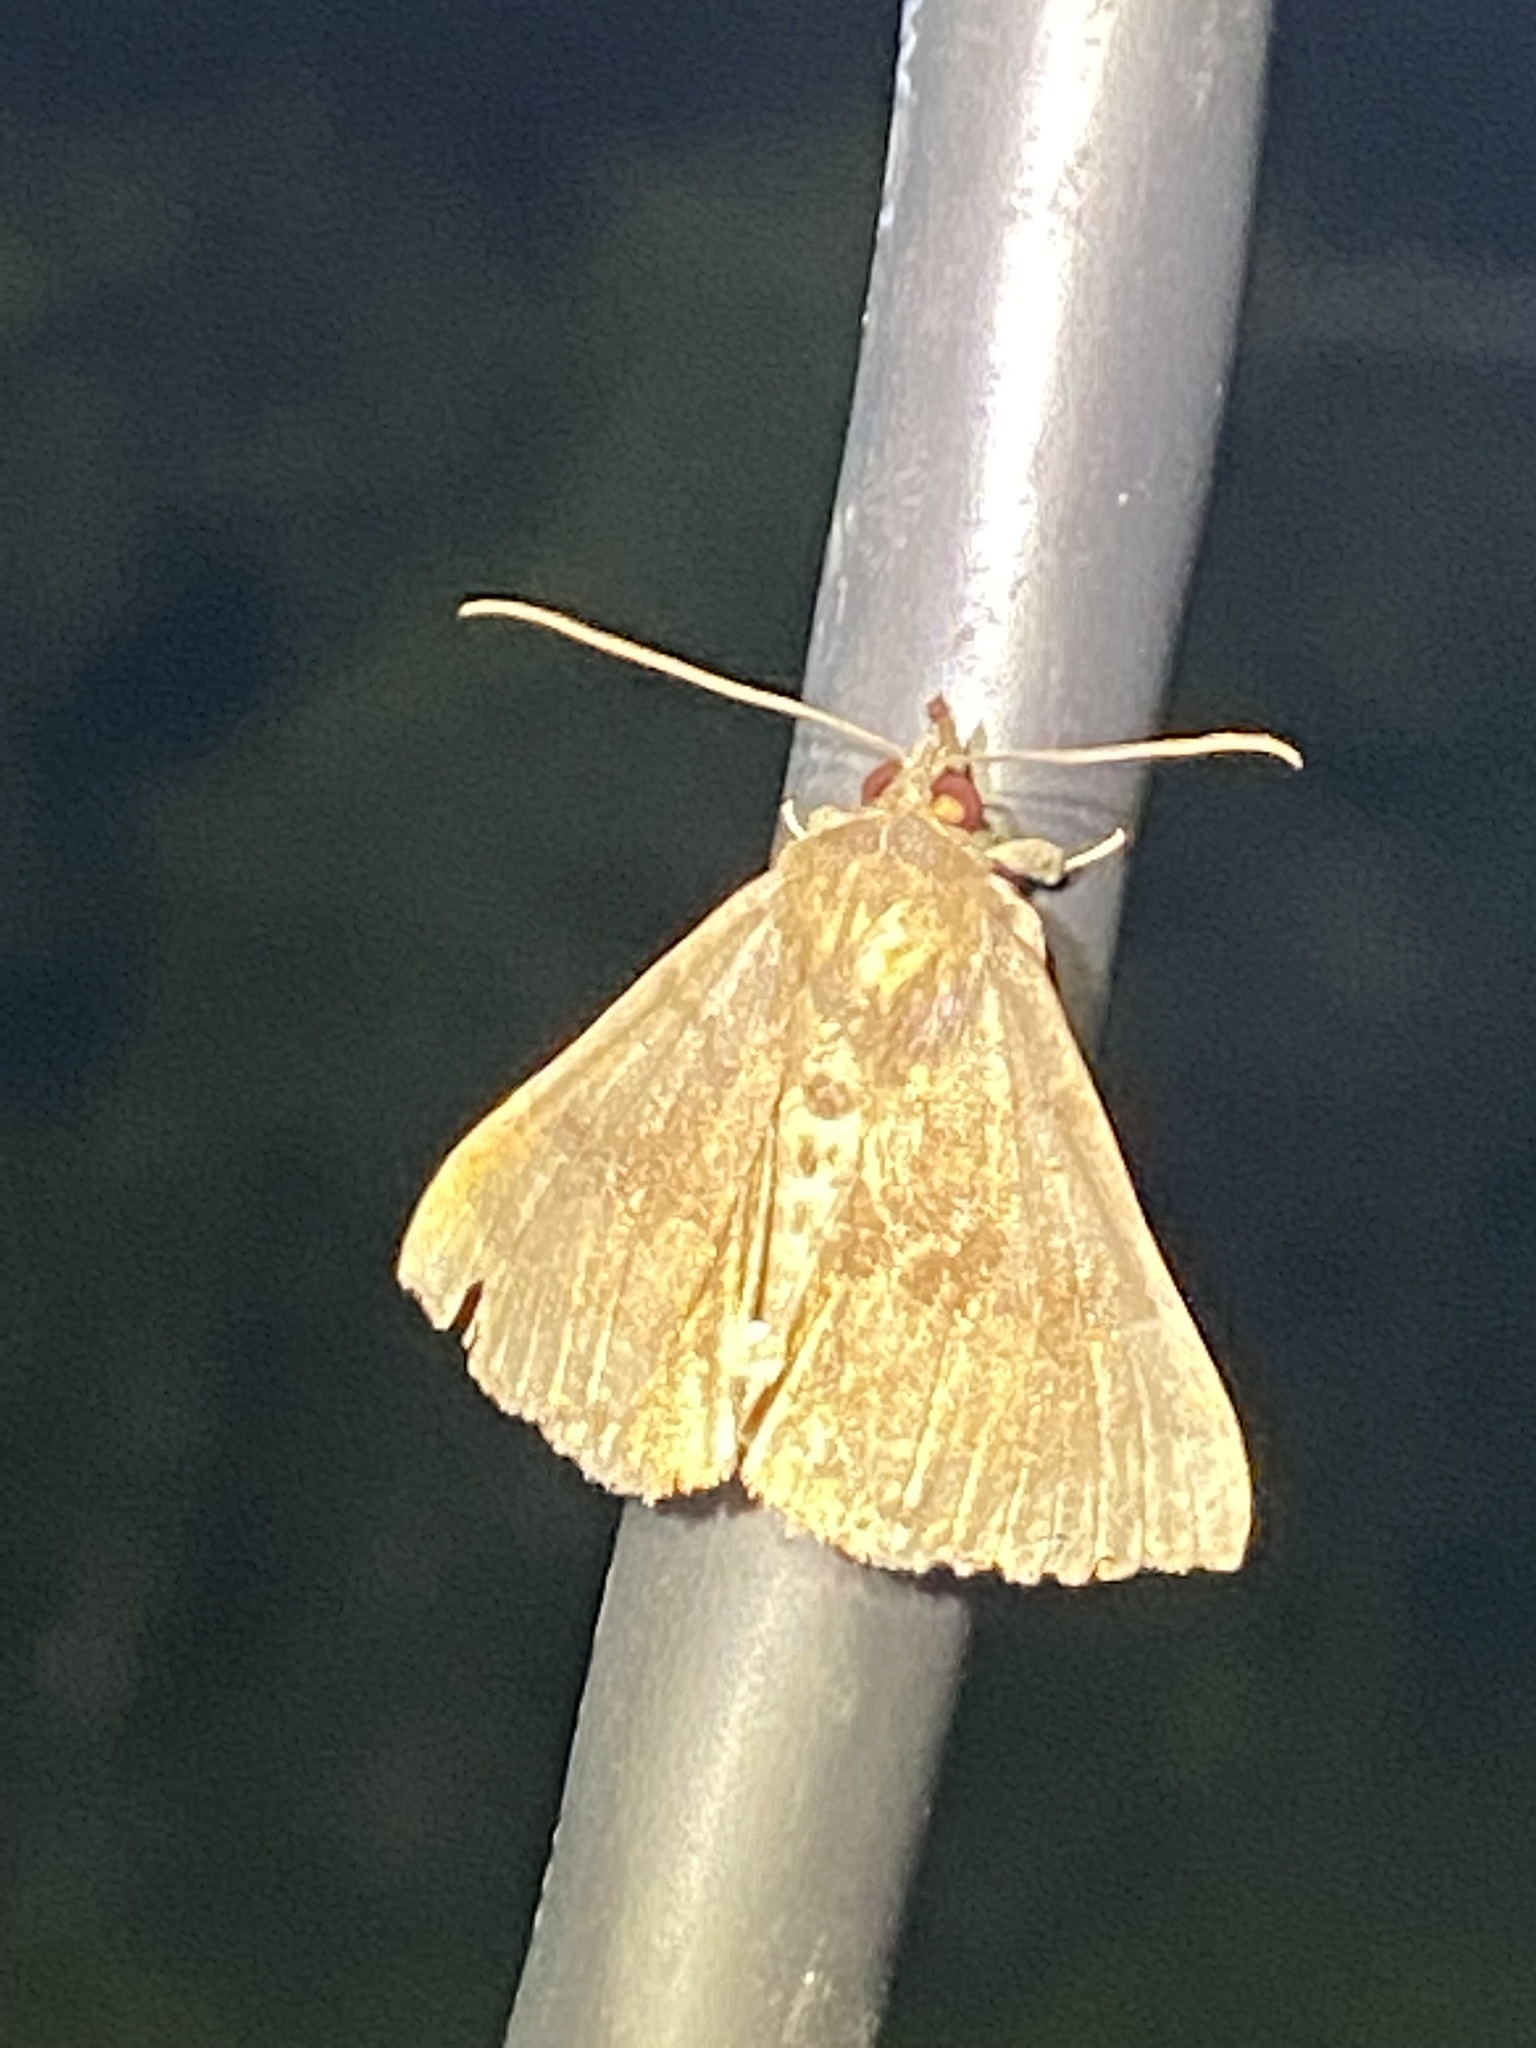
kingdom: Animalia
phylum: Arthropoda
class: Insecta
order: Lepidoptera
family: Erebidae
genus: Hypena
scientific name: Hypena madefactalis
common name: Gray-edged snout
